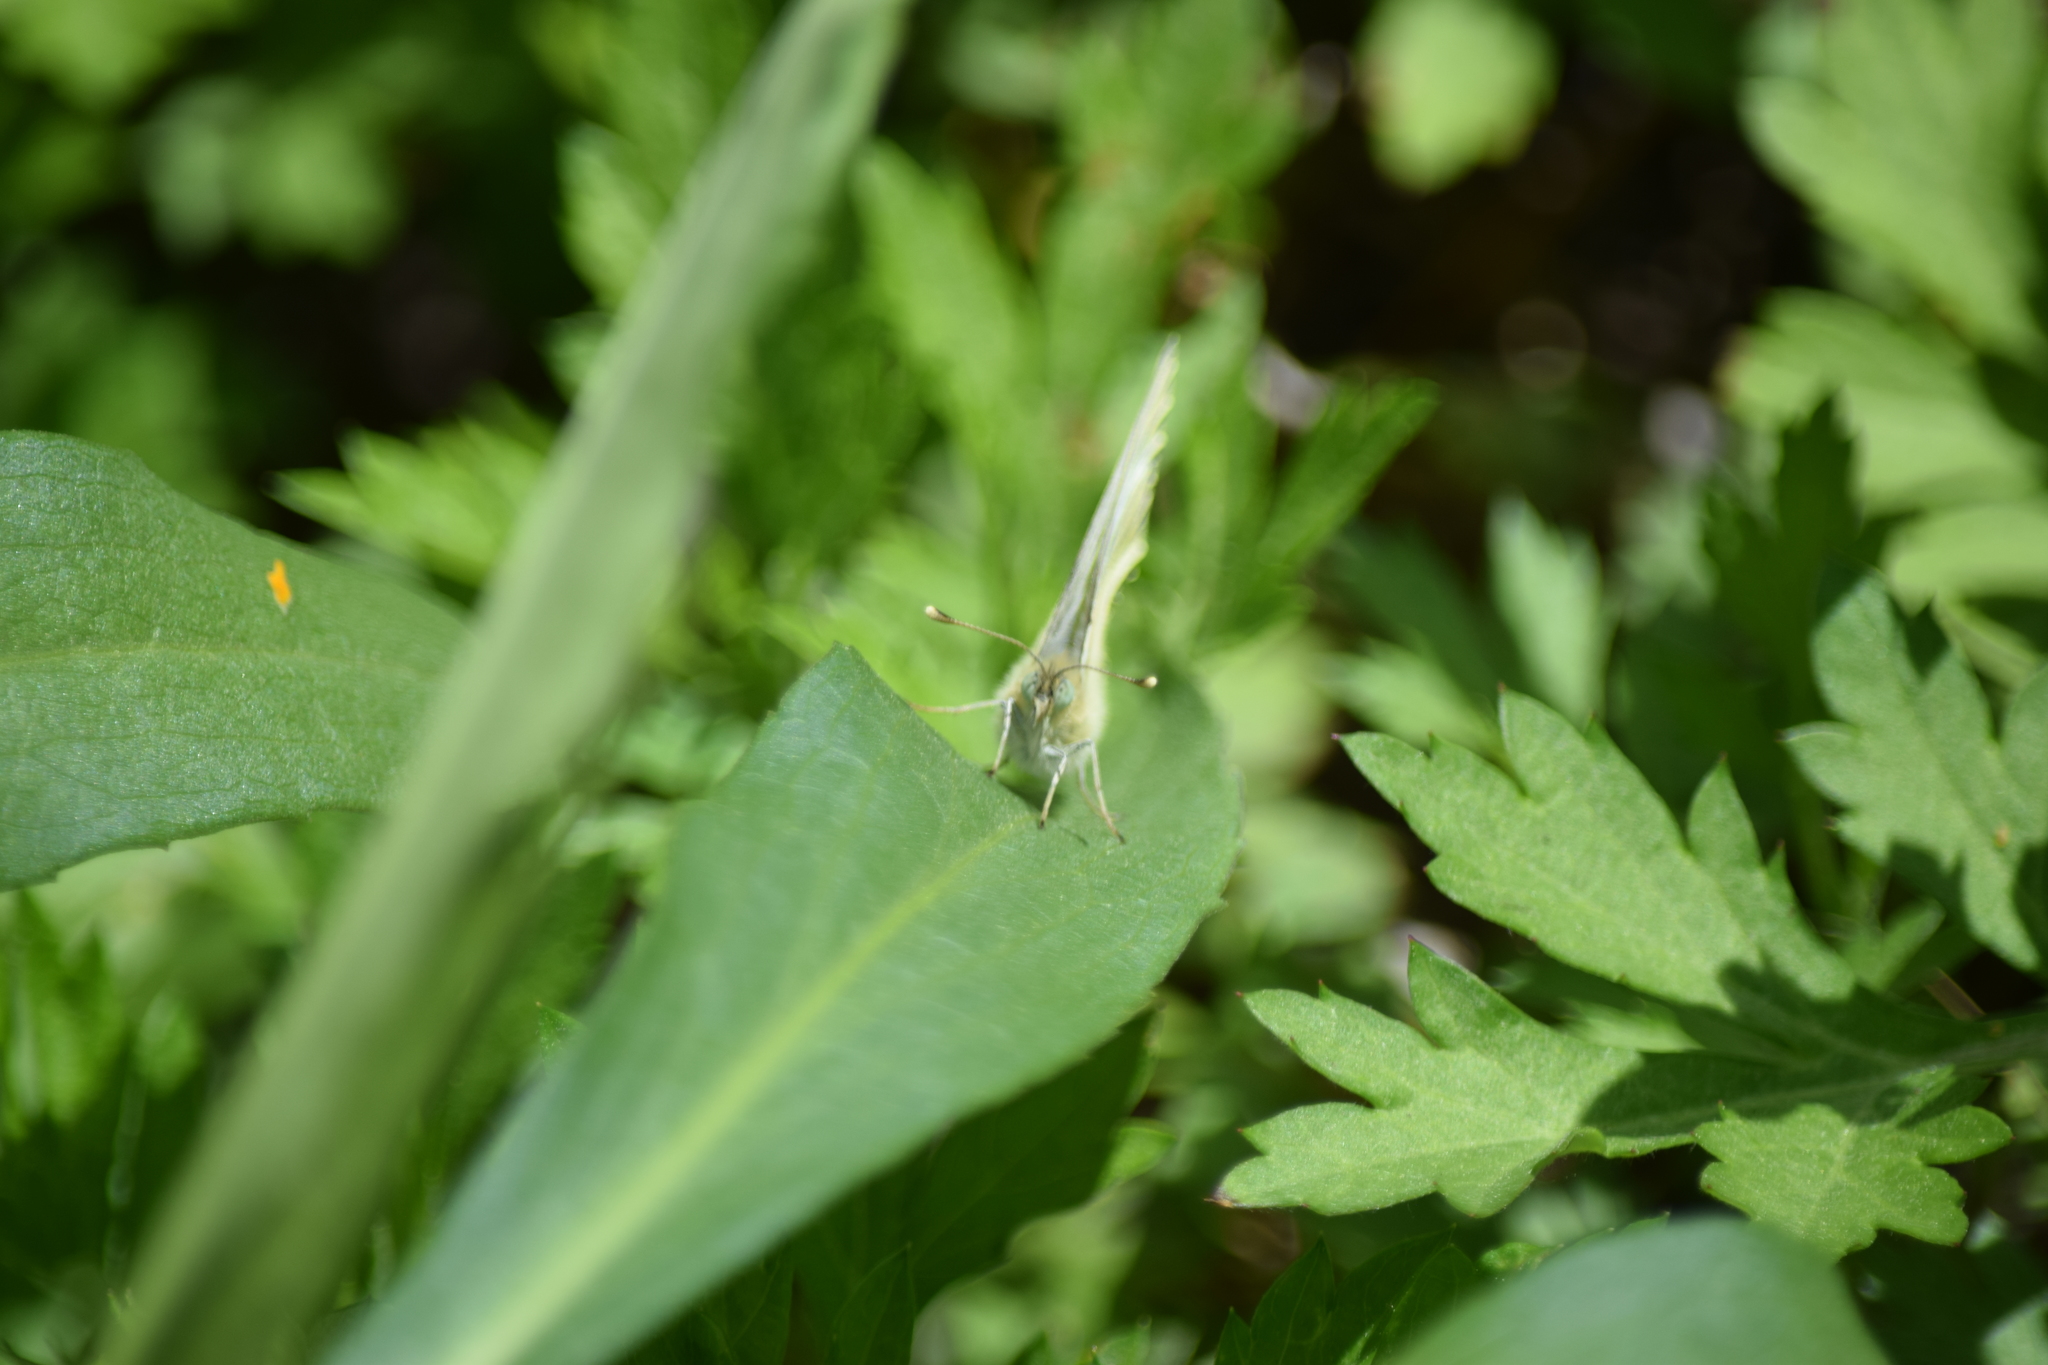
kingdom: Animalia
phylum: Arthropoda
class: Insecta
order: Lepidoptera
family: Pieridae
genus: Pieris
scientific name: Pieris rapae
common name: Small white
